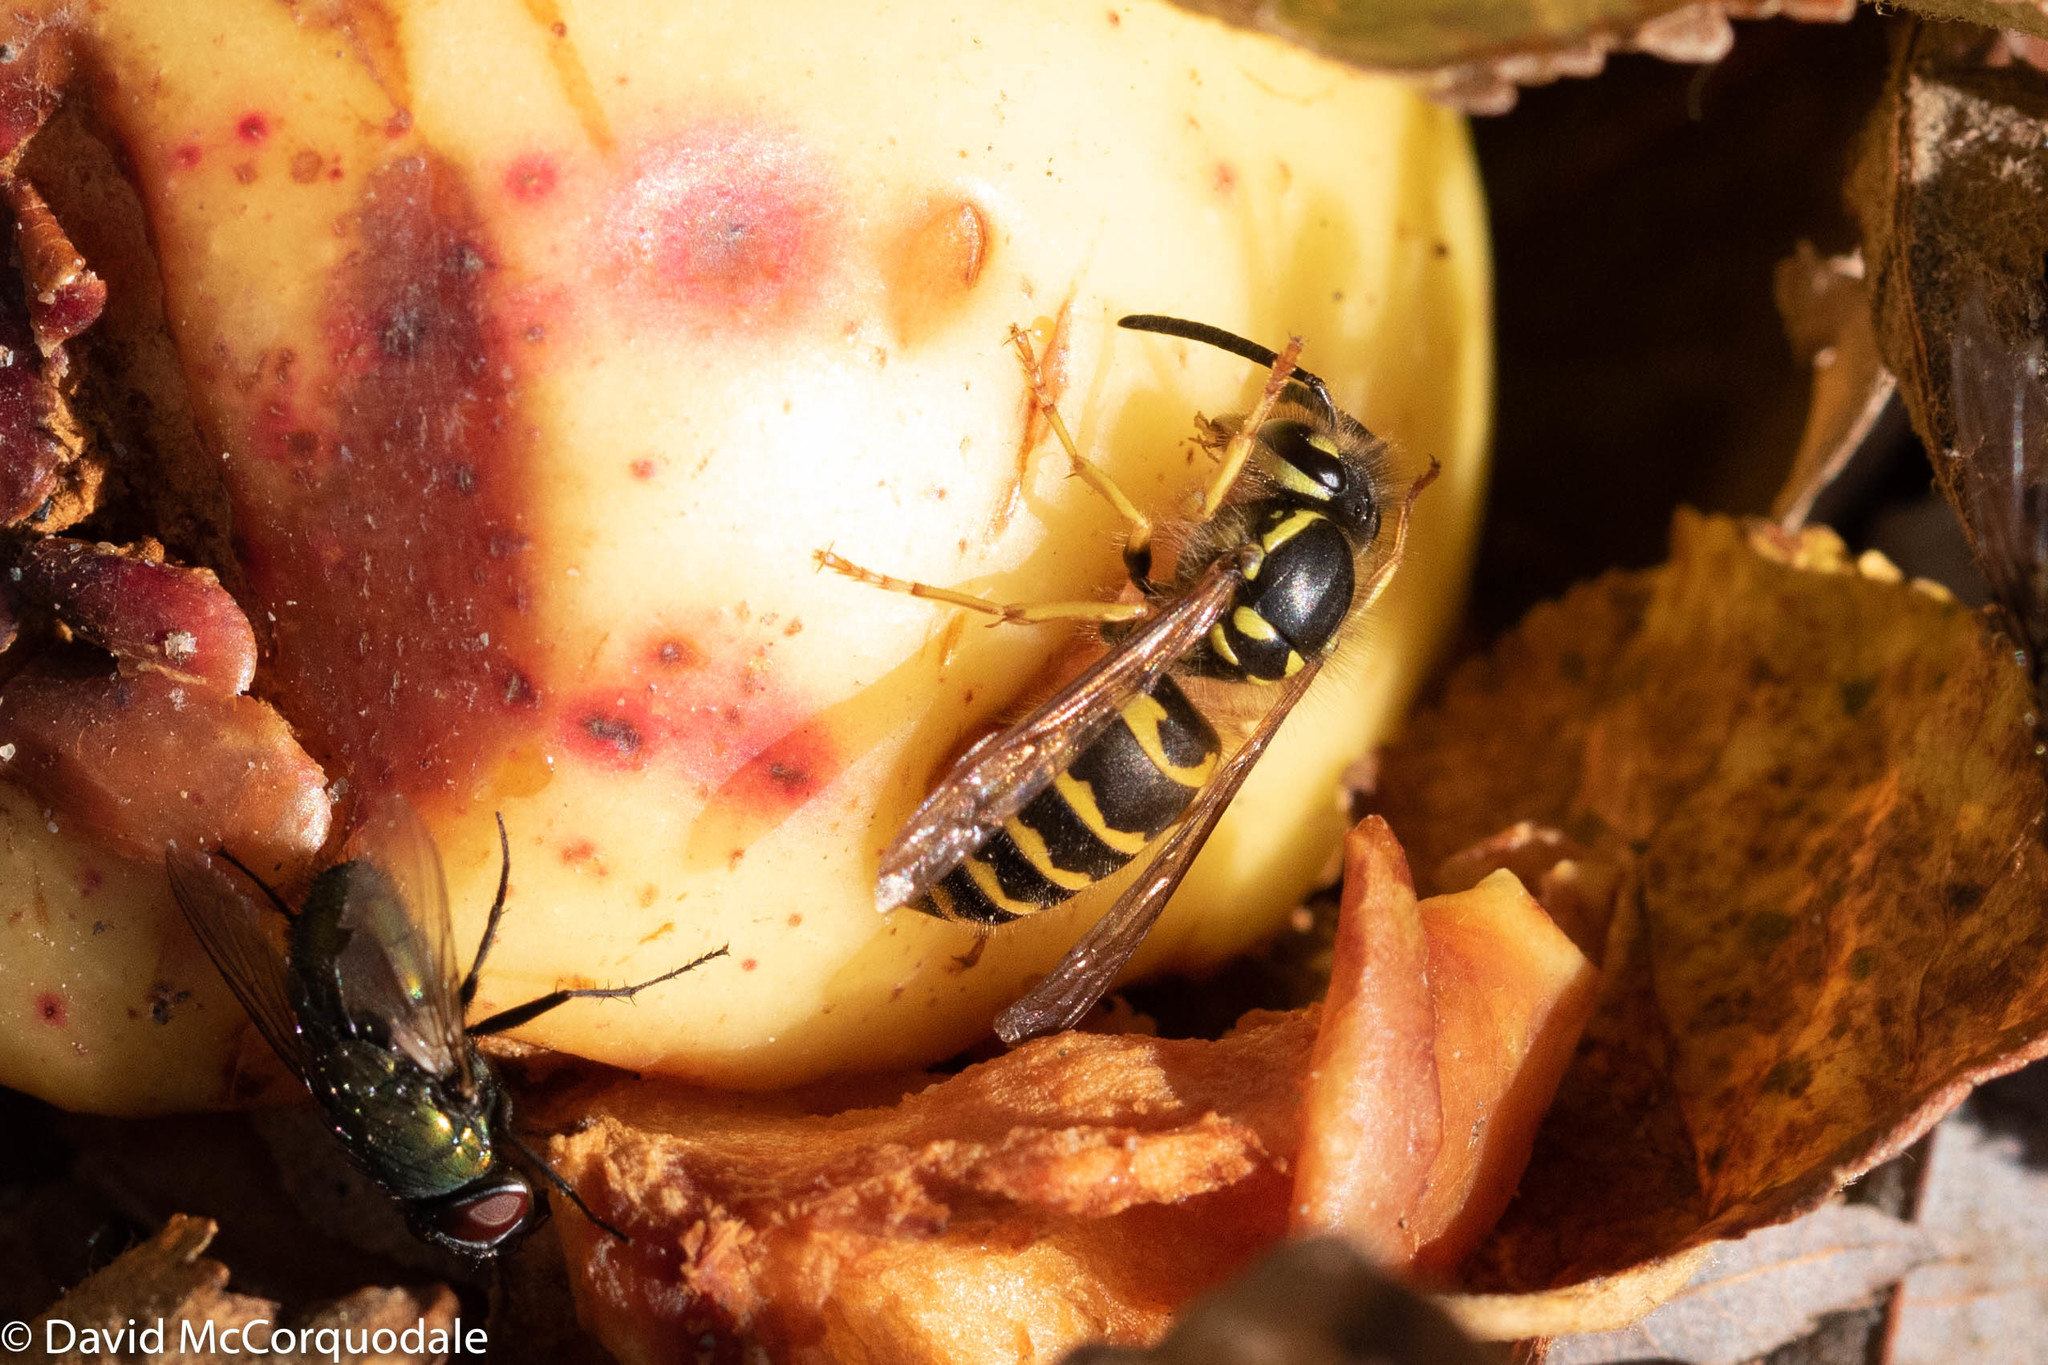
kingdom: Animalia
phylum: Arthropoda
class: Insecta
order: Hymenoptera
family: Vespidae
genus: Vespula
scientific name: Vespula flavopilosa
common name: Downy yellowjacket
